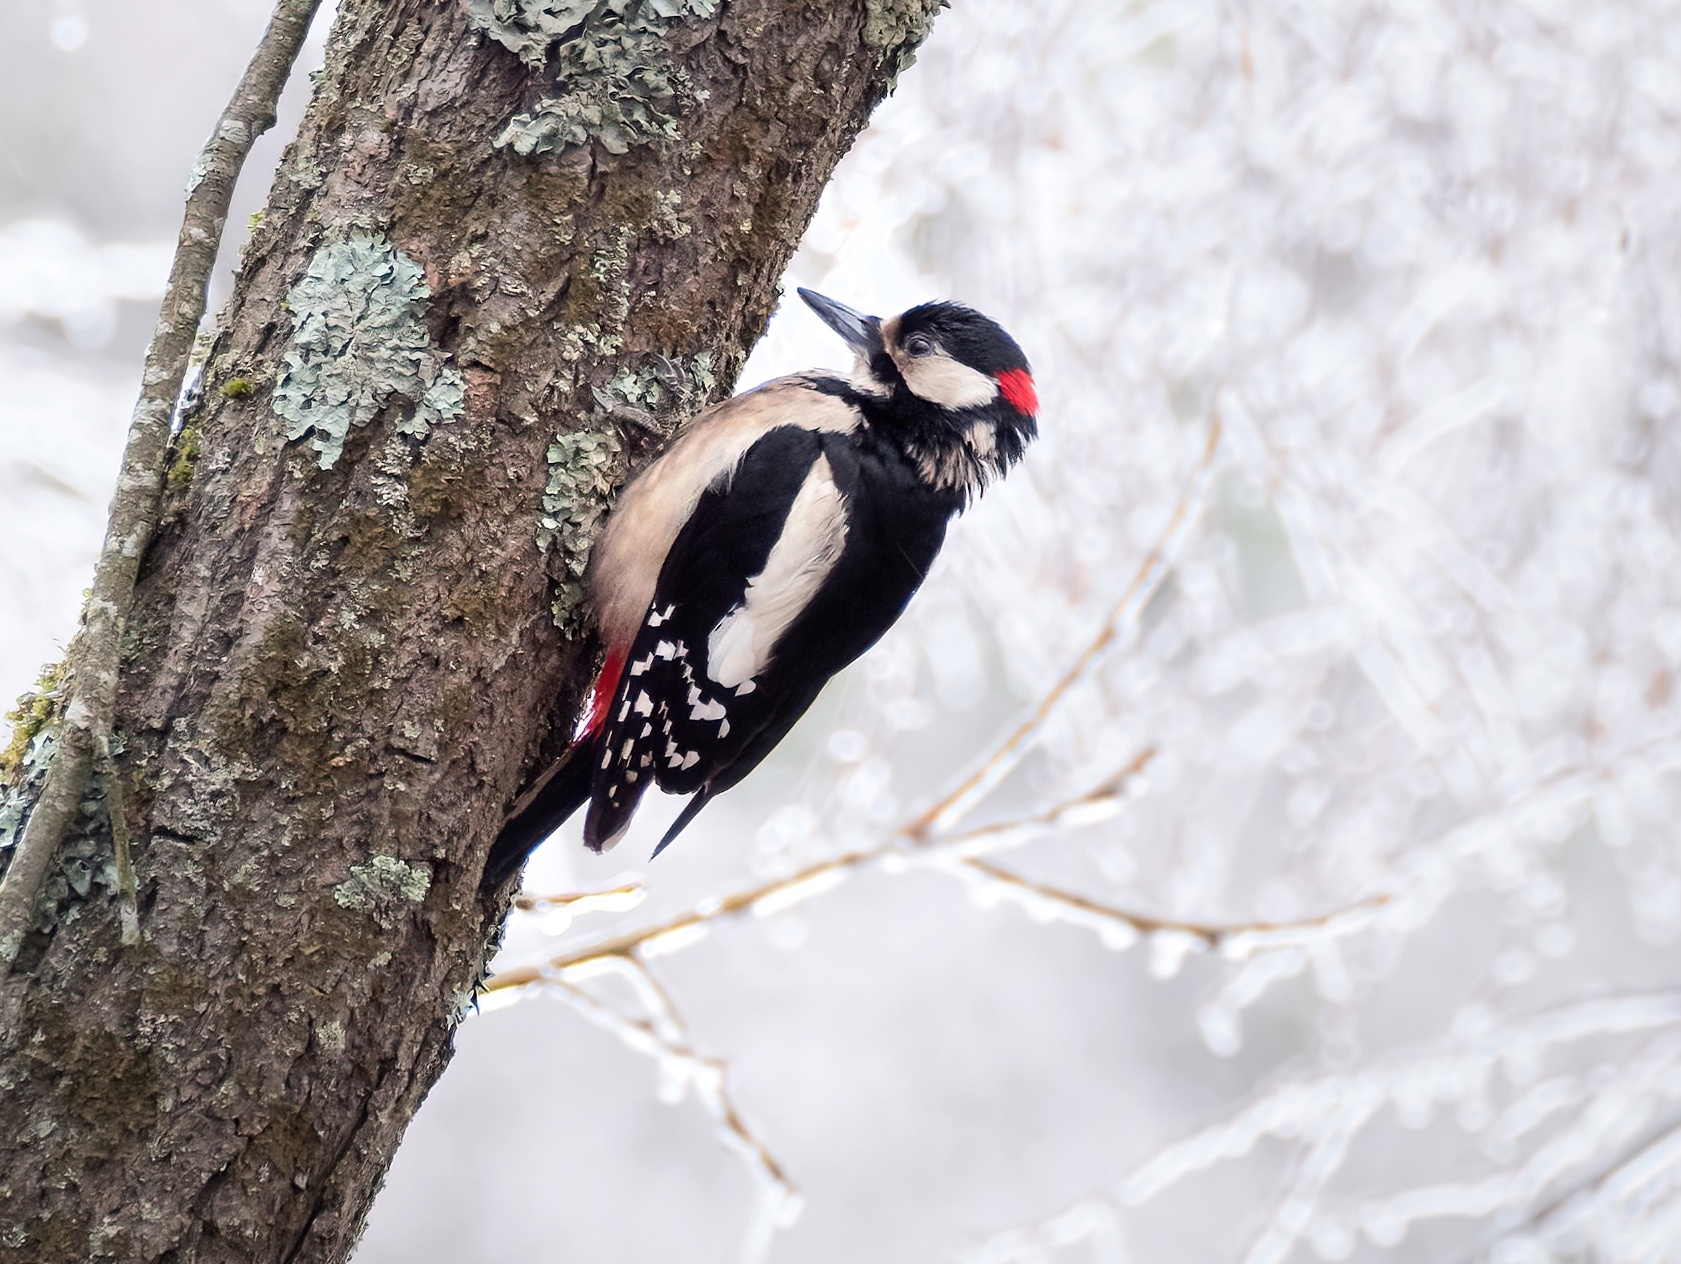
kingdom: Animalia
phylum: Chordata
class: Aves
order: Piciformes
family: Picidae
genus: Dendrocopos
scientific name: Dendrocopos major
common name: Great spotted woodpecker
